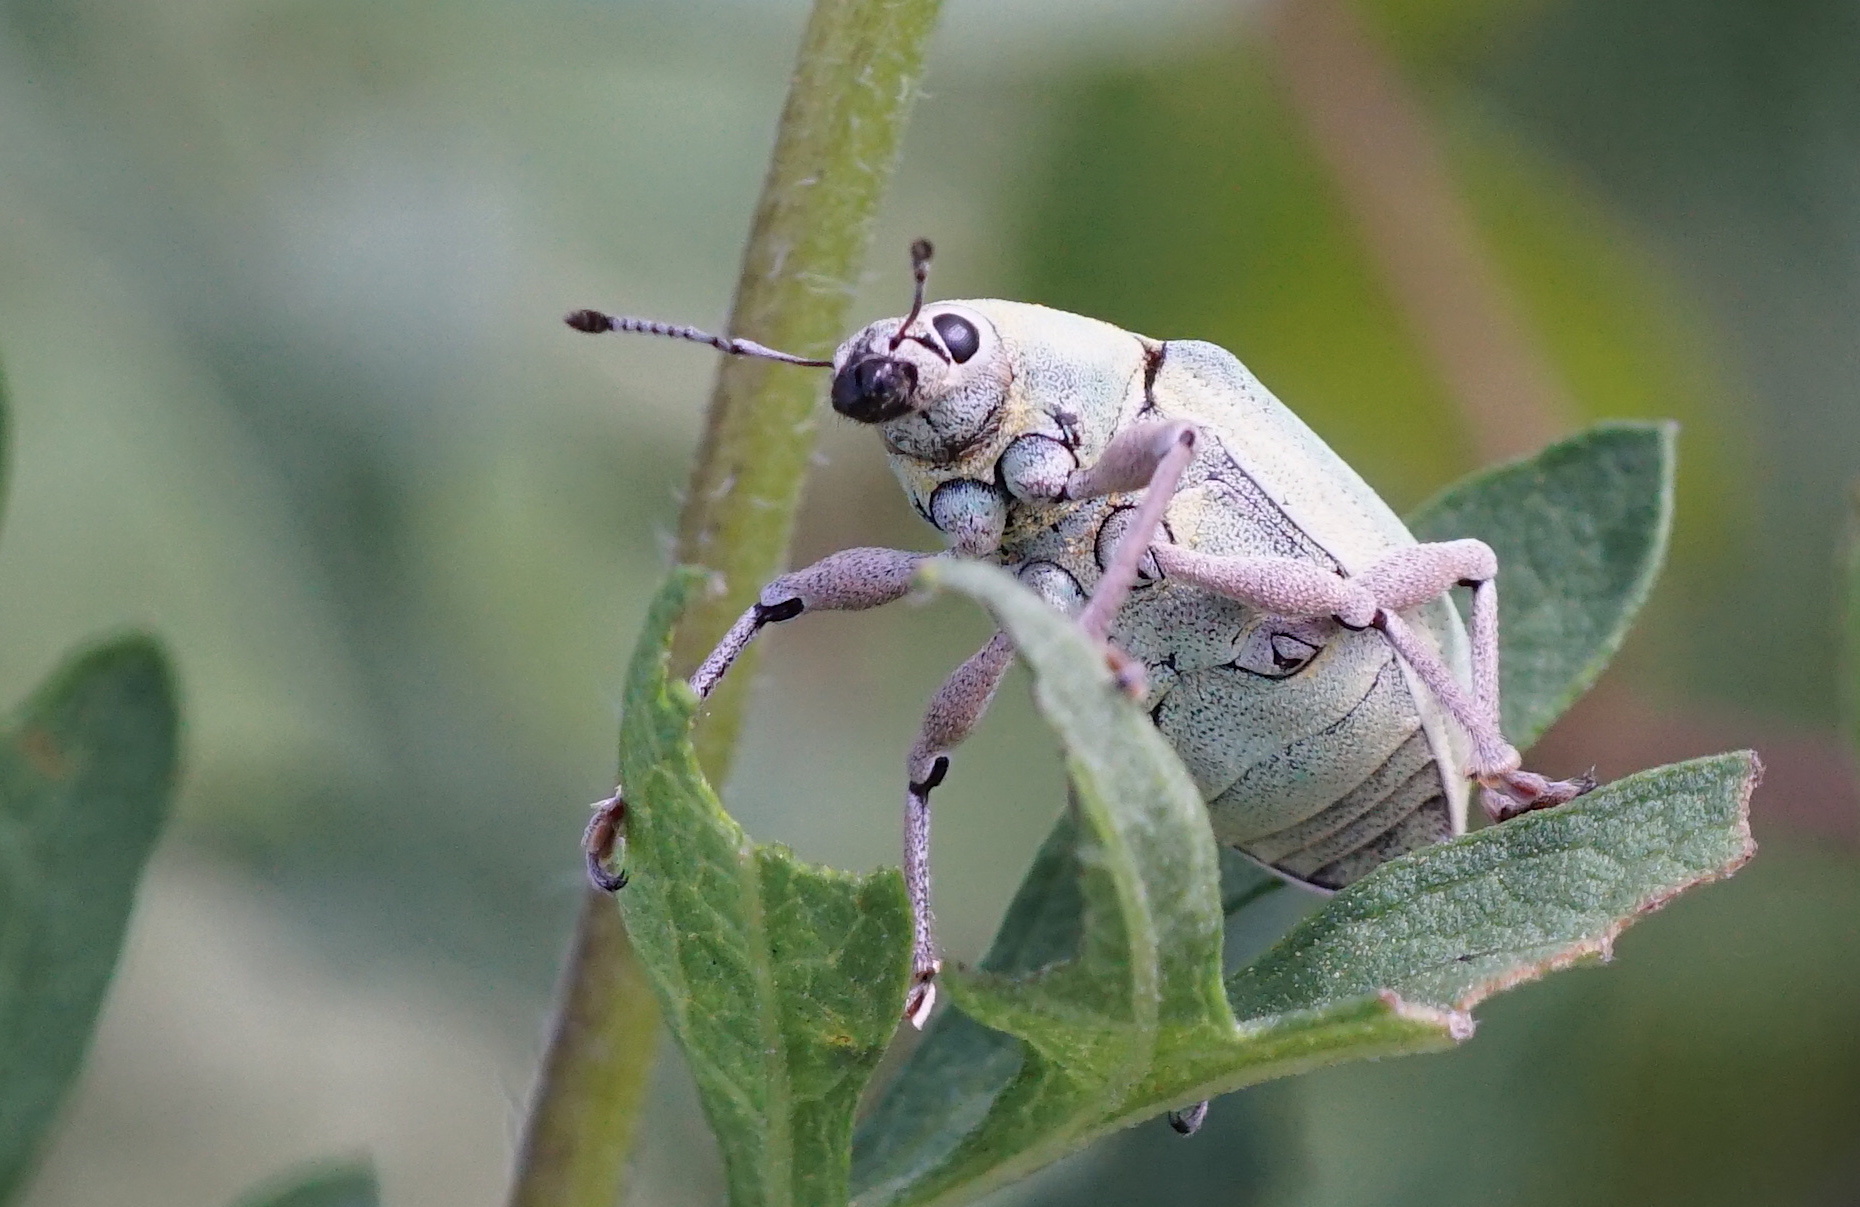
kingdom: Animalia
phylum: Arthropoda
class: Insecta
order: Coleoptera
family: Curculionidae
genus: Pachnaeus
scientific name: Pachnaeus litus
